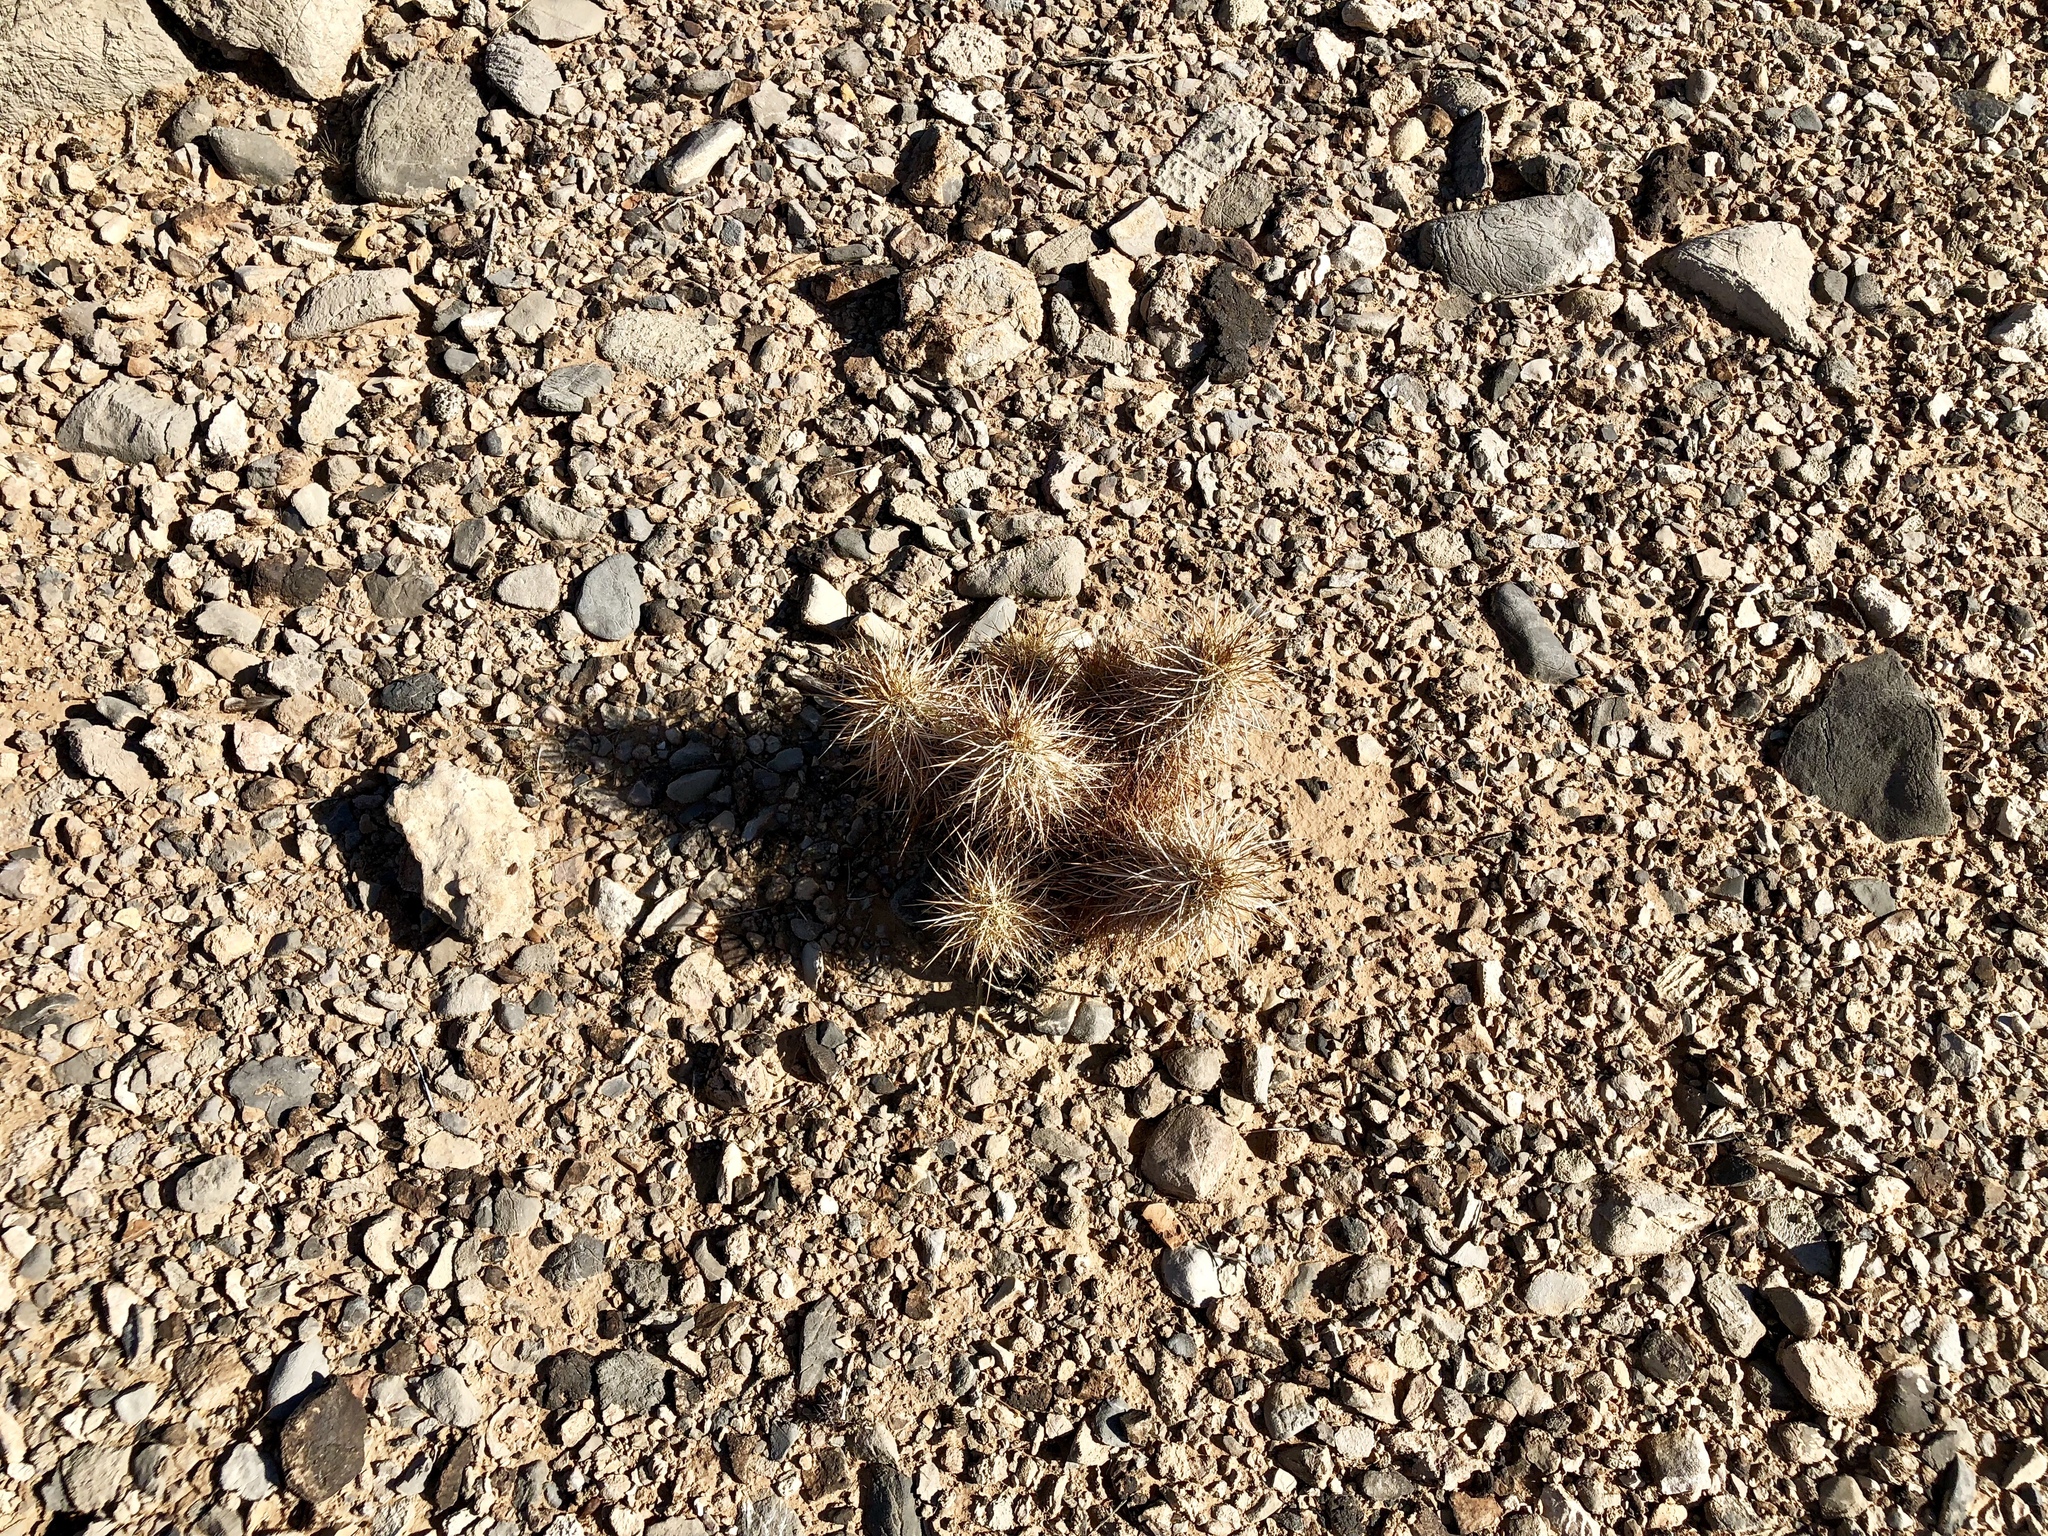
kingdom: Plantae
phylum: Tracheophyta
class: Magnoliopsida
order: Caryophyllales
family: Cactaceae
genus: Echinocereus
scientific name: Echinocereus engelmannii
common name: Engelmann's hedgehog cactus
